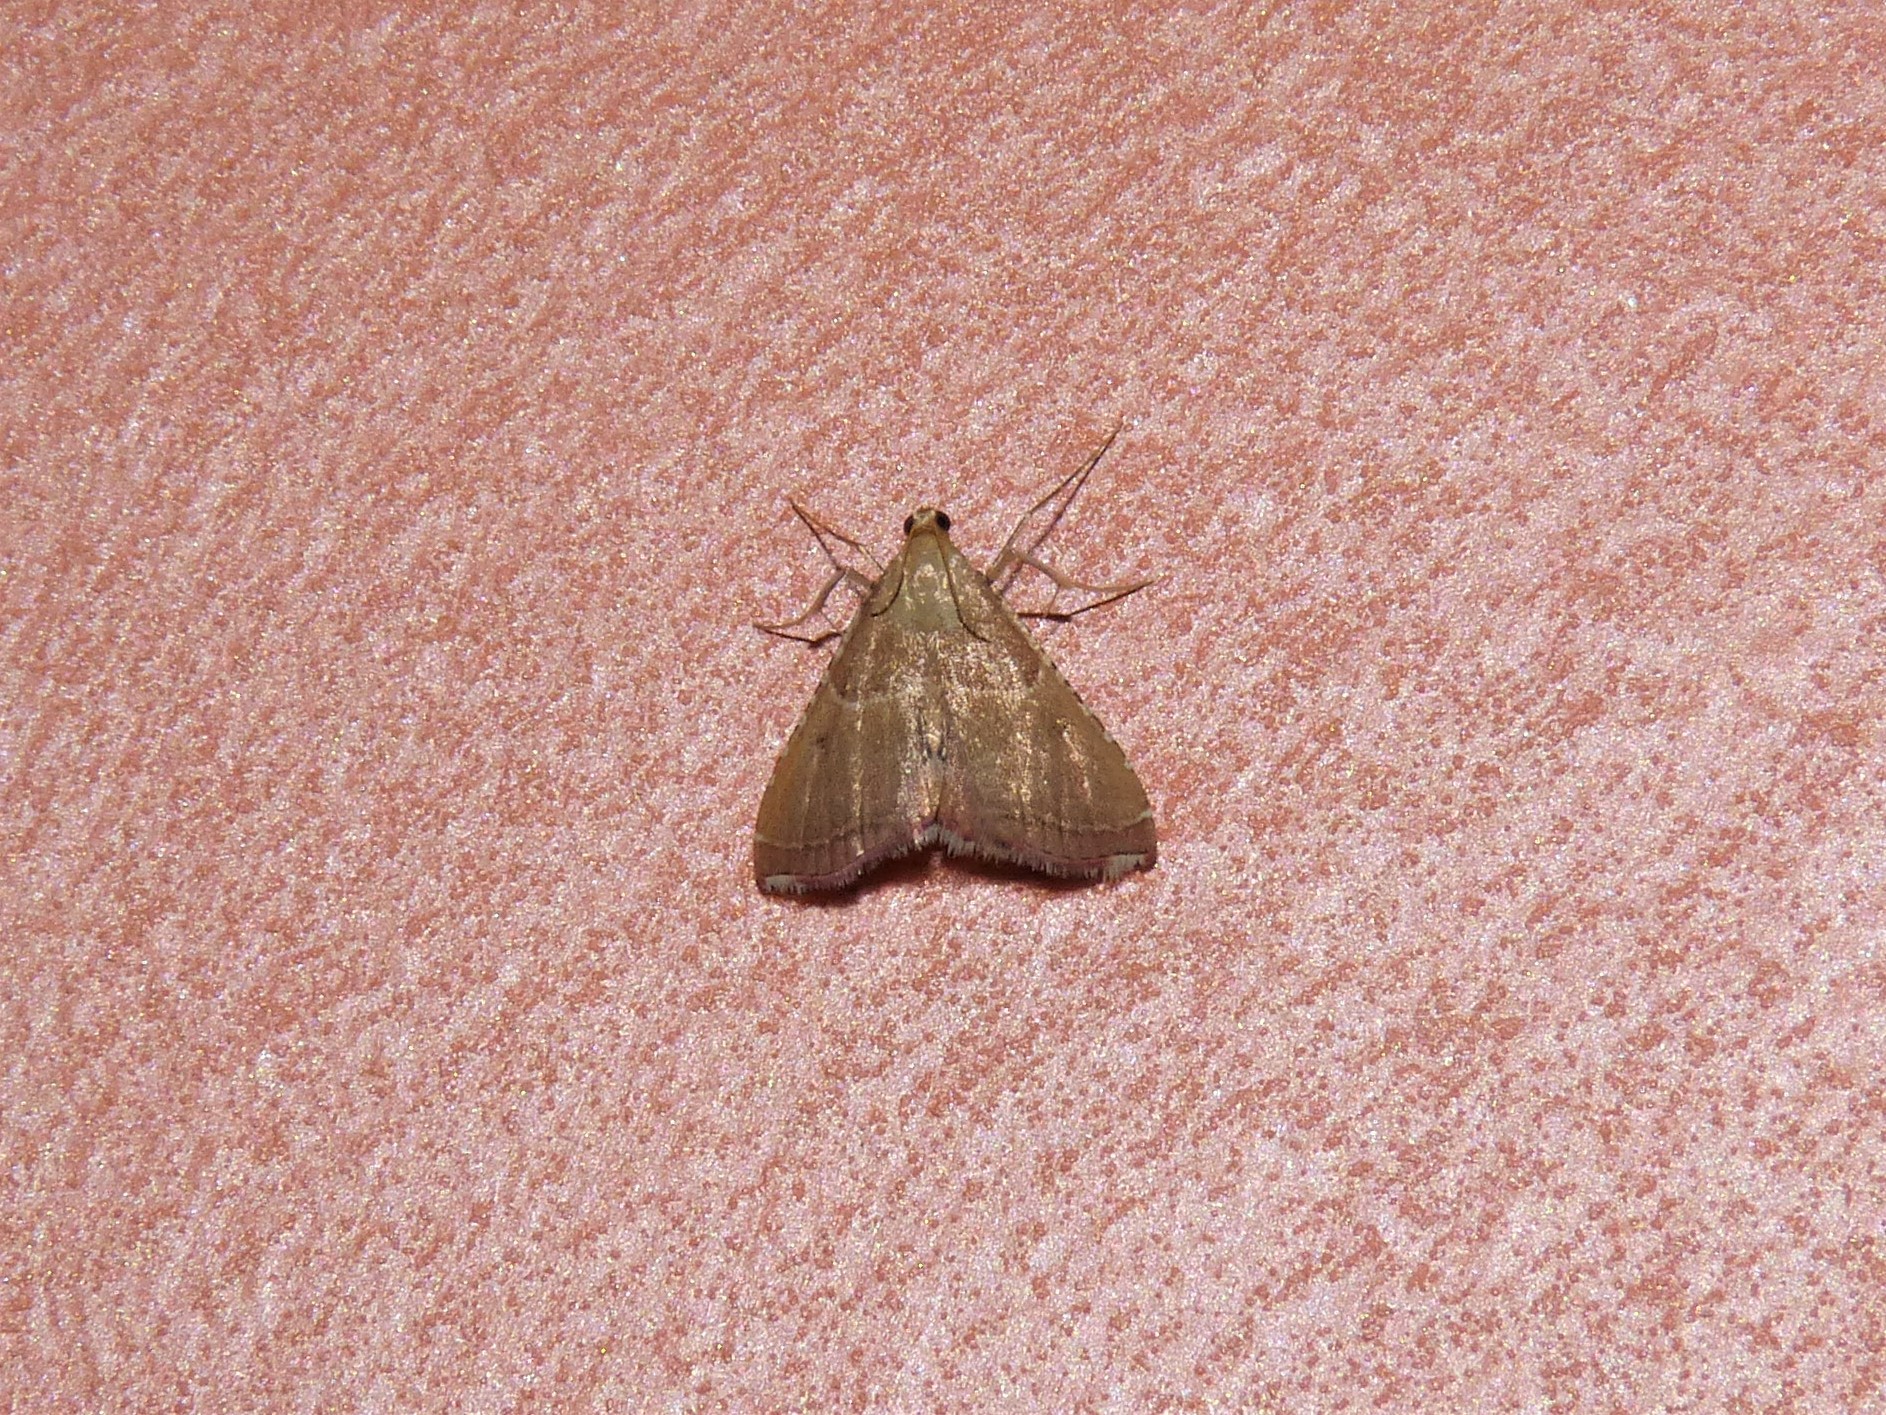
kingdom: Animalia
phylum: Arthropoda
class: Insecta
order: Lepidoptera
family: Pyralidae
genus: Endotricha
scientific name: Endotricha flammealis
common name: Rosy tabby
